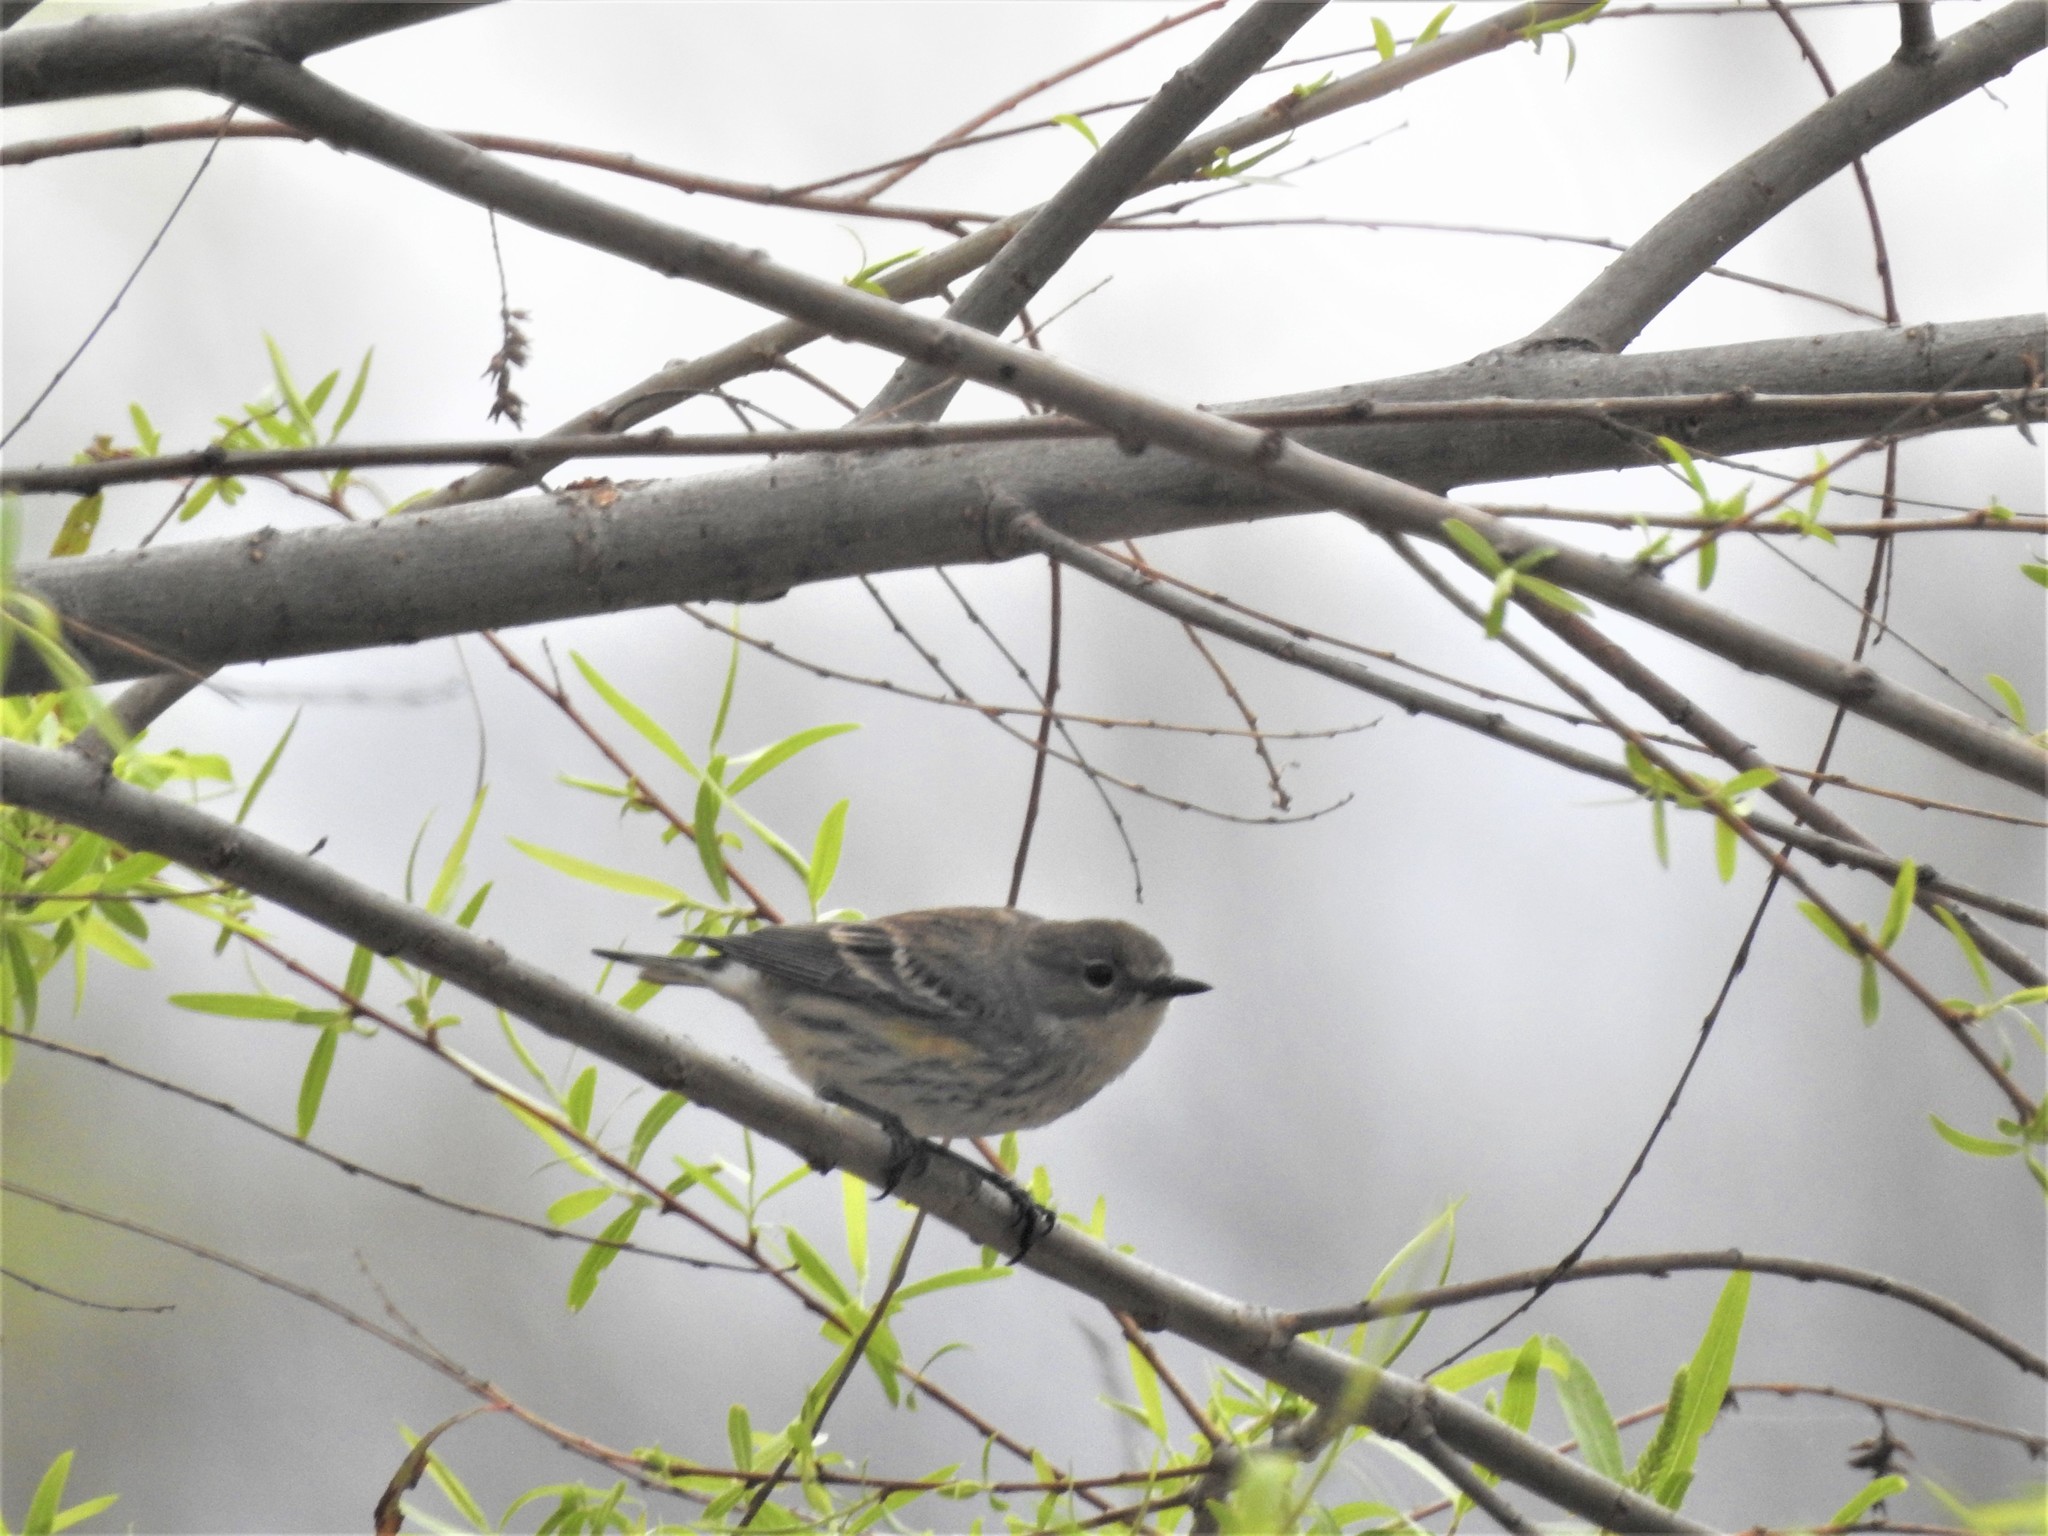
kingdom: Animalia
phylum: Chordata
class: Aves
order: Passeriformes
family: Parulidae
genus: Setophaga
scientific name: Setophaga coronata
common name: Myrtle warbler
